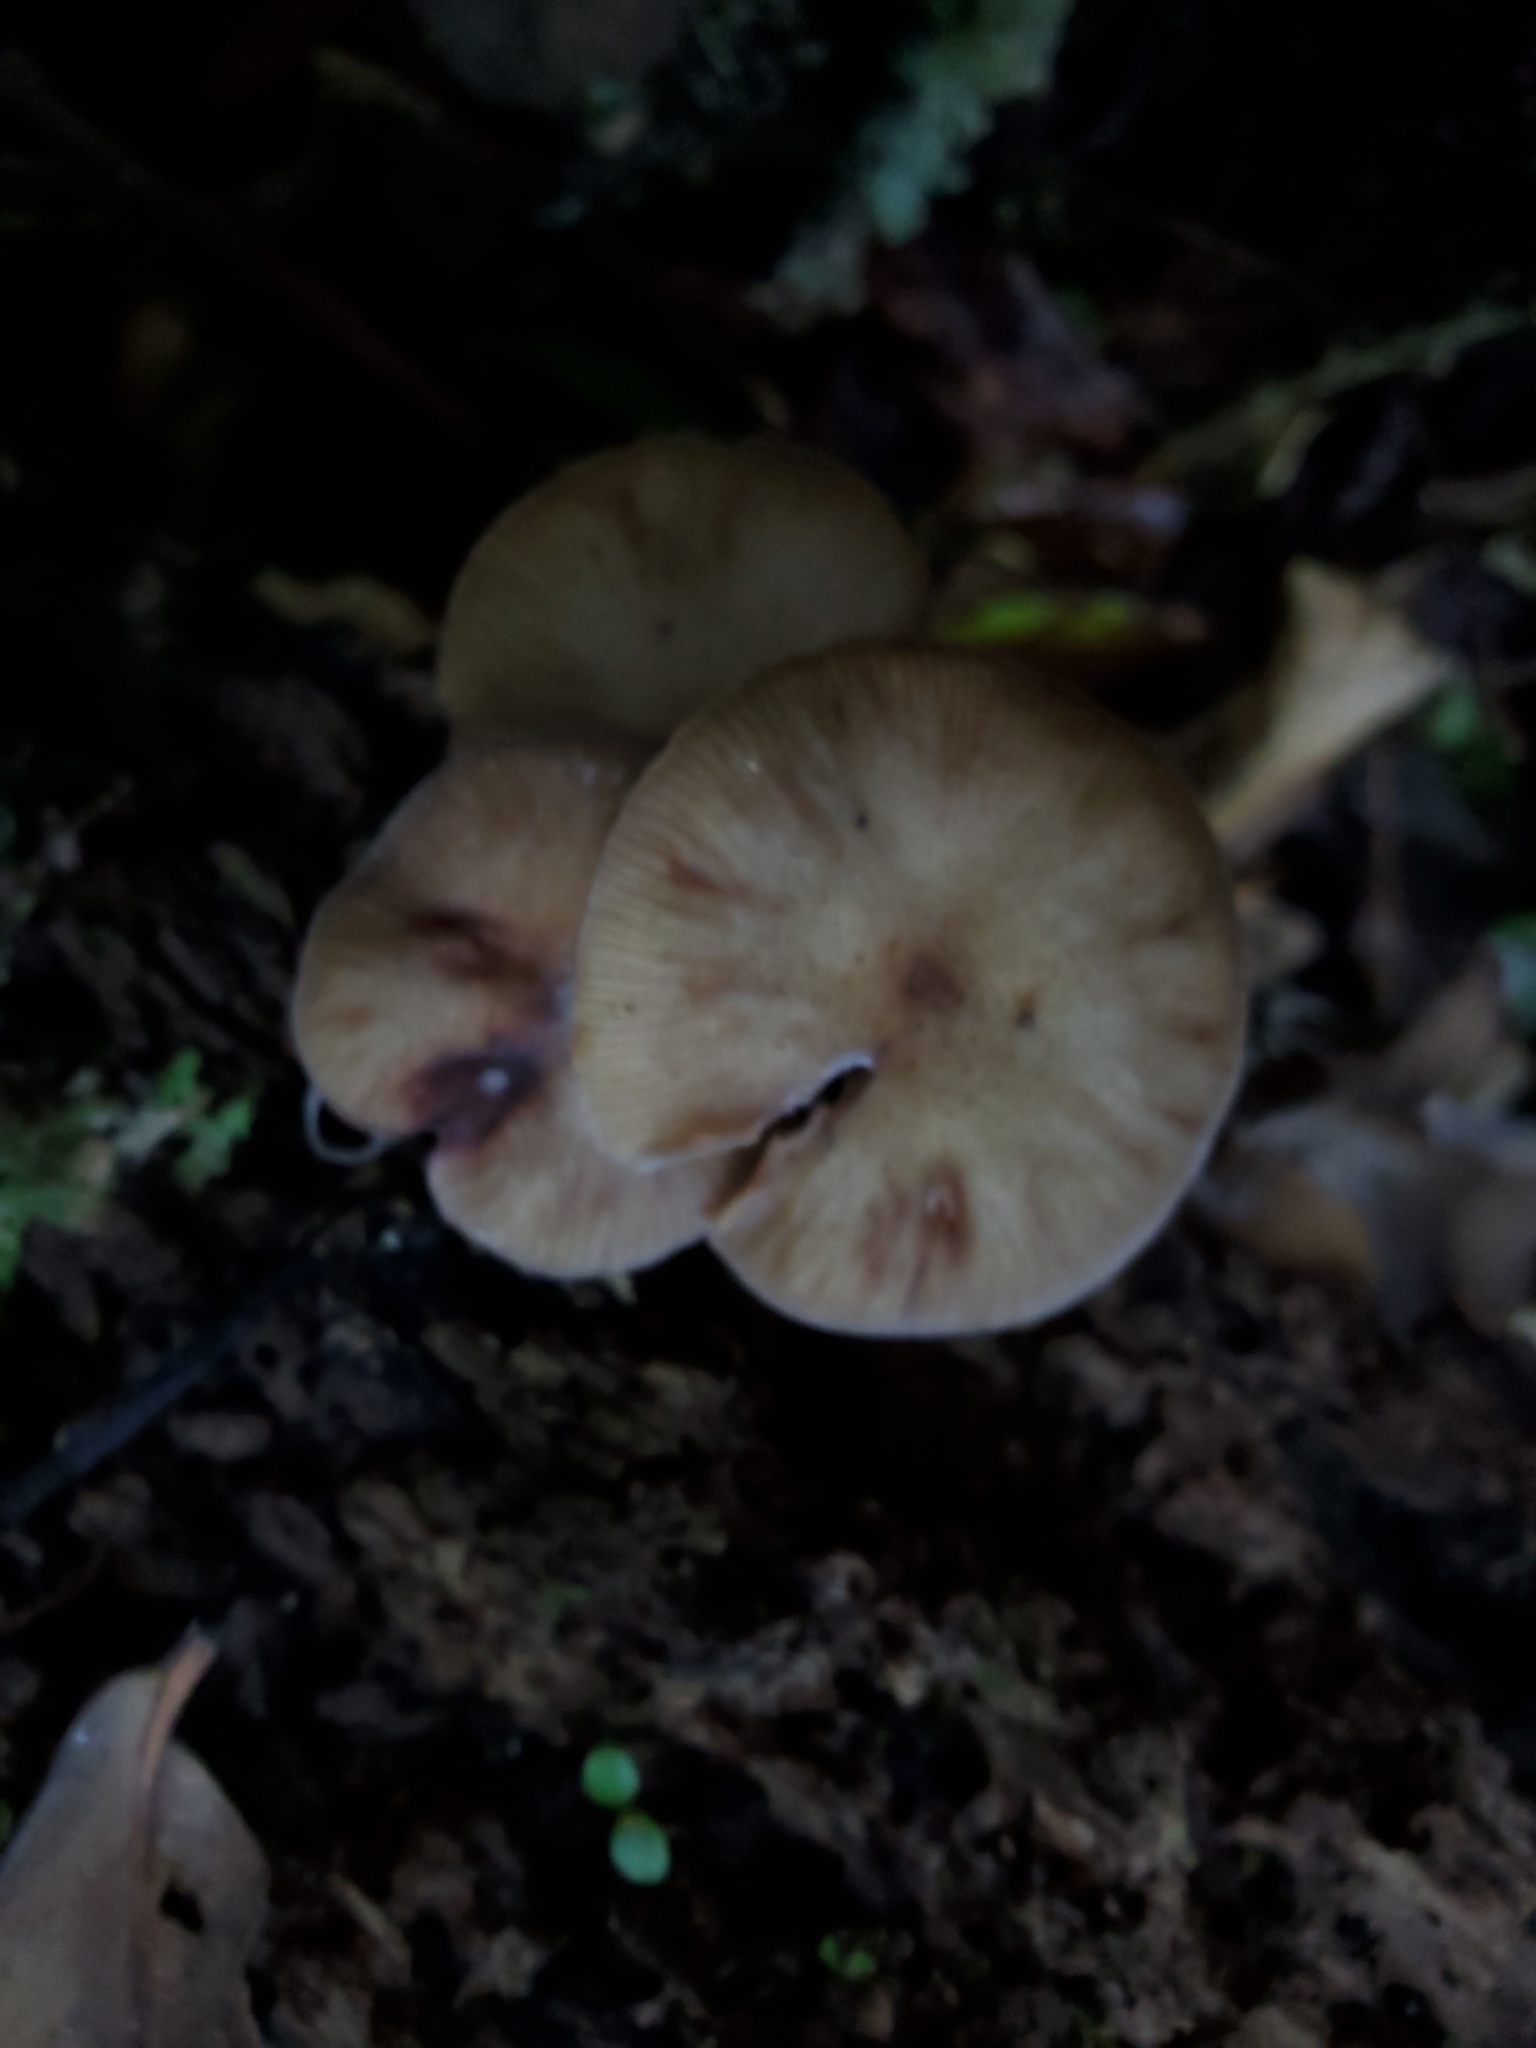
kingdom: Fungi
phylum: Basidiomycota
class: Agaricomycetes
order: Agaricales
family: Physalacriaceae
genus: Armillaria
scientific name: Armillaria novae-zelandiae
